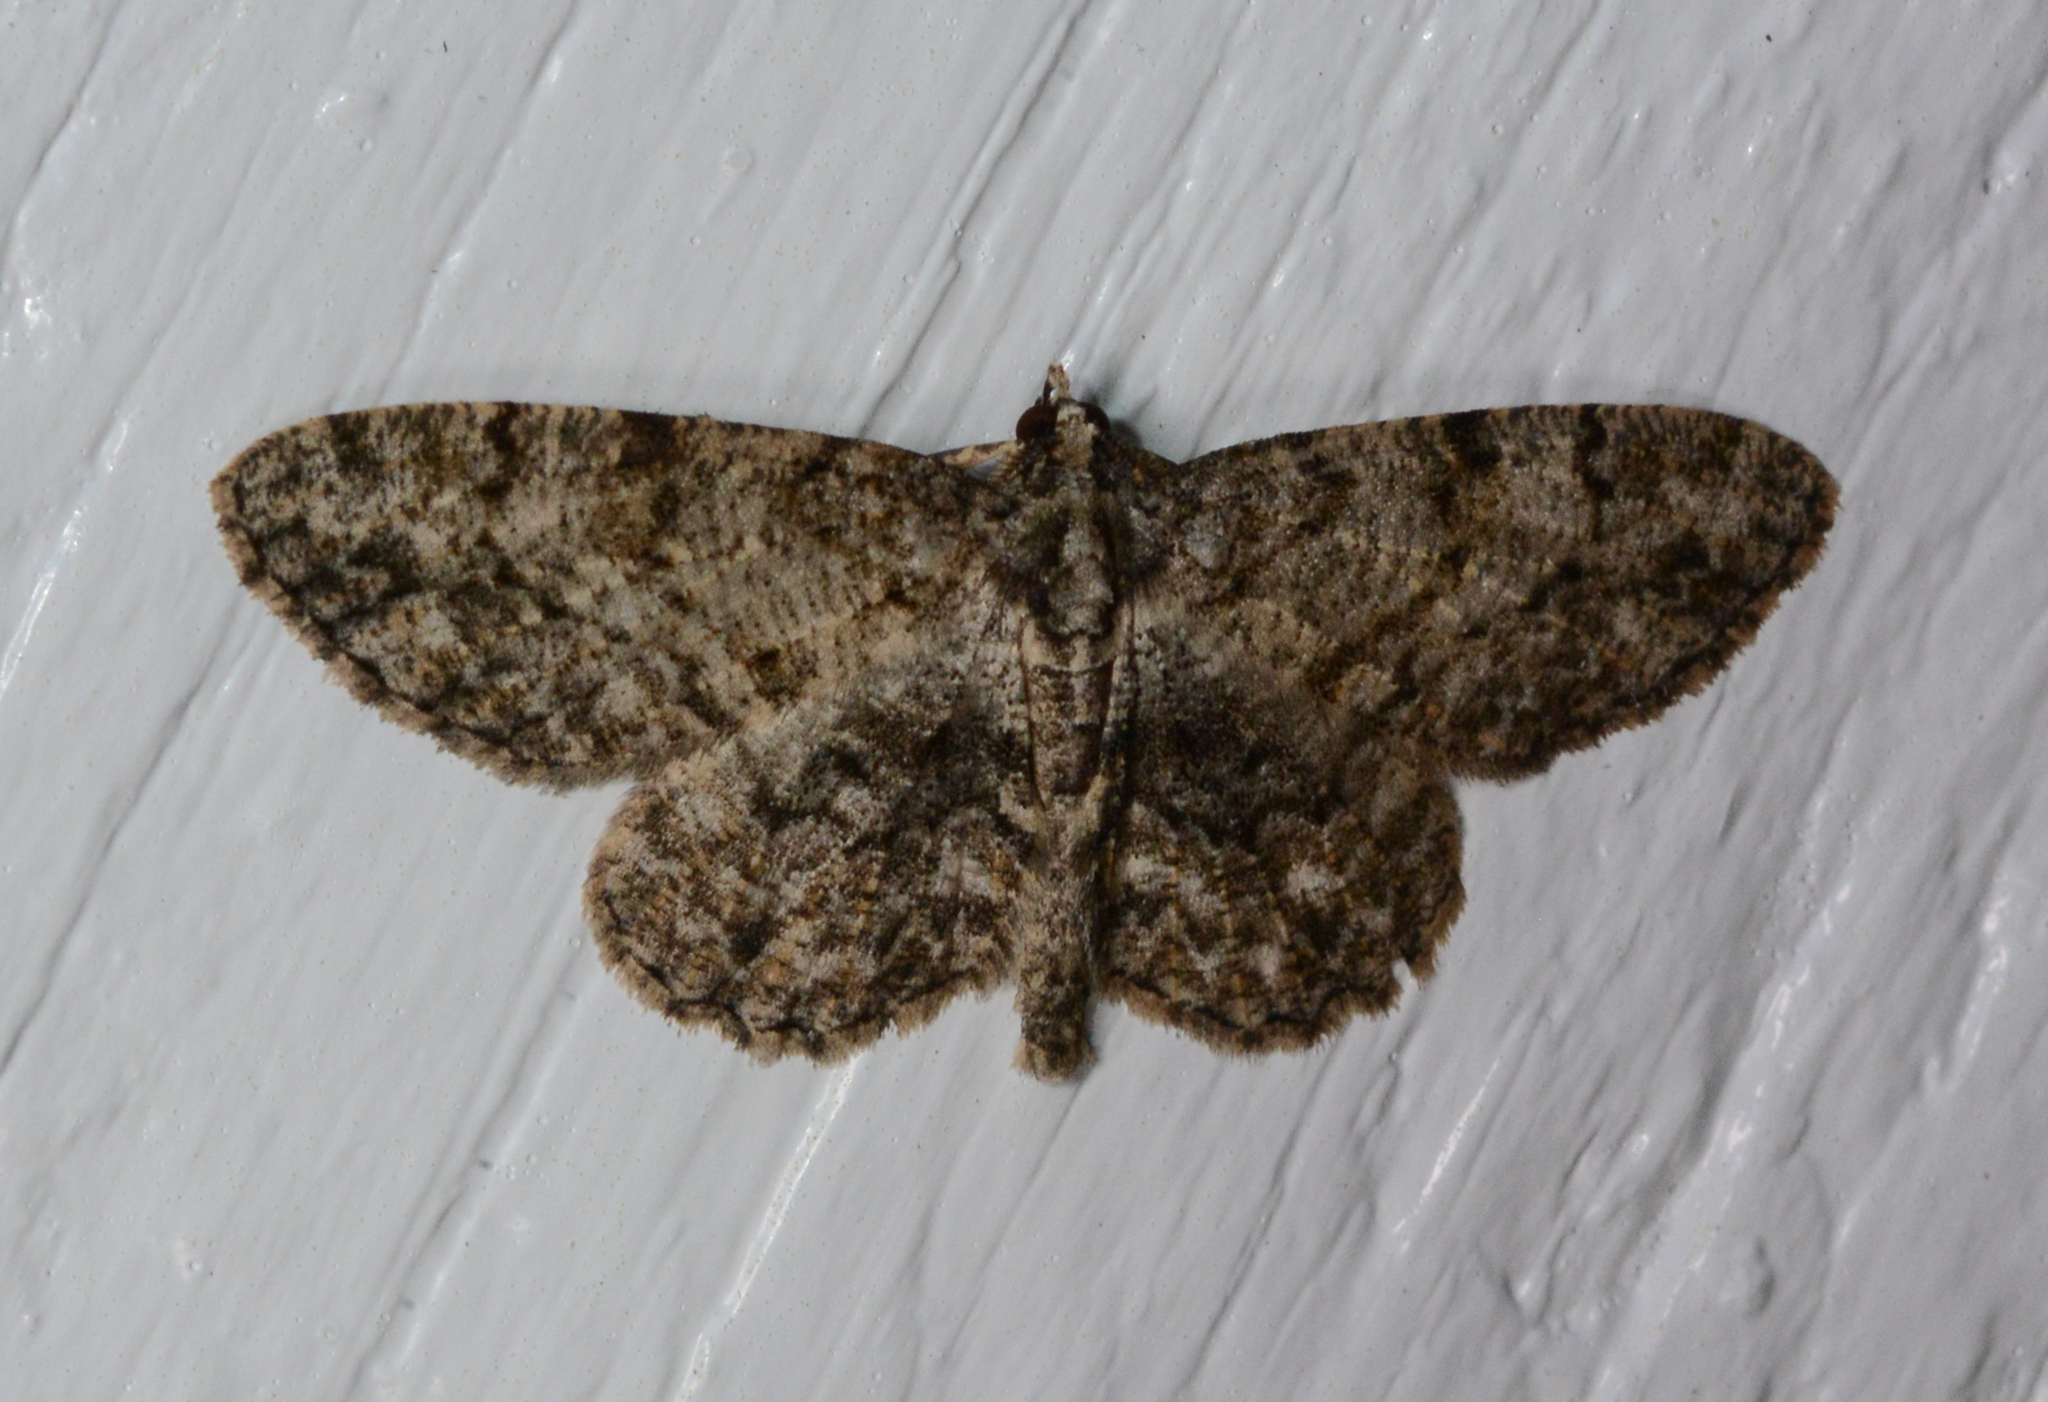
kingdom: Animalia
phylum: Arthropoda
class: Insecta
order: Lepidoptera
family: Geometridae
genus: Protoboarmia
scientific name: Protoboarmia porcelaria
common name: Porcelain gray
